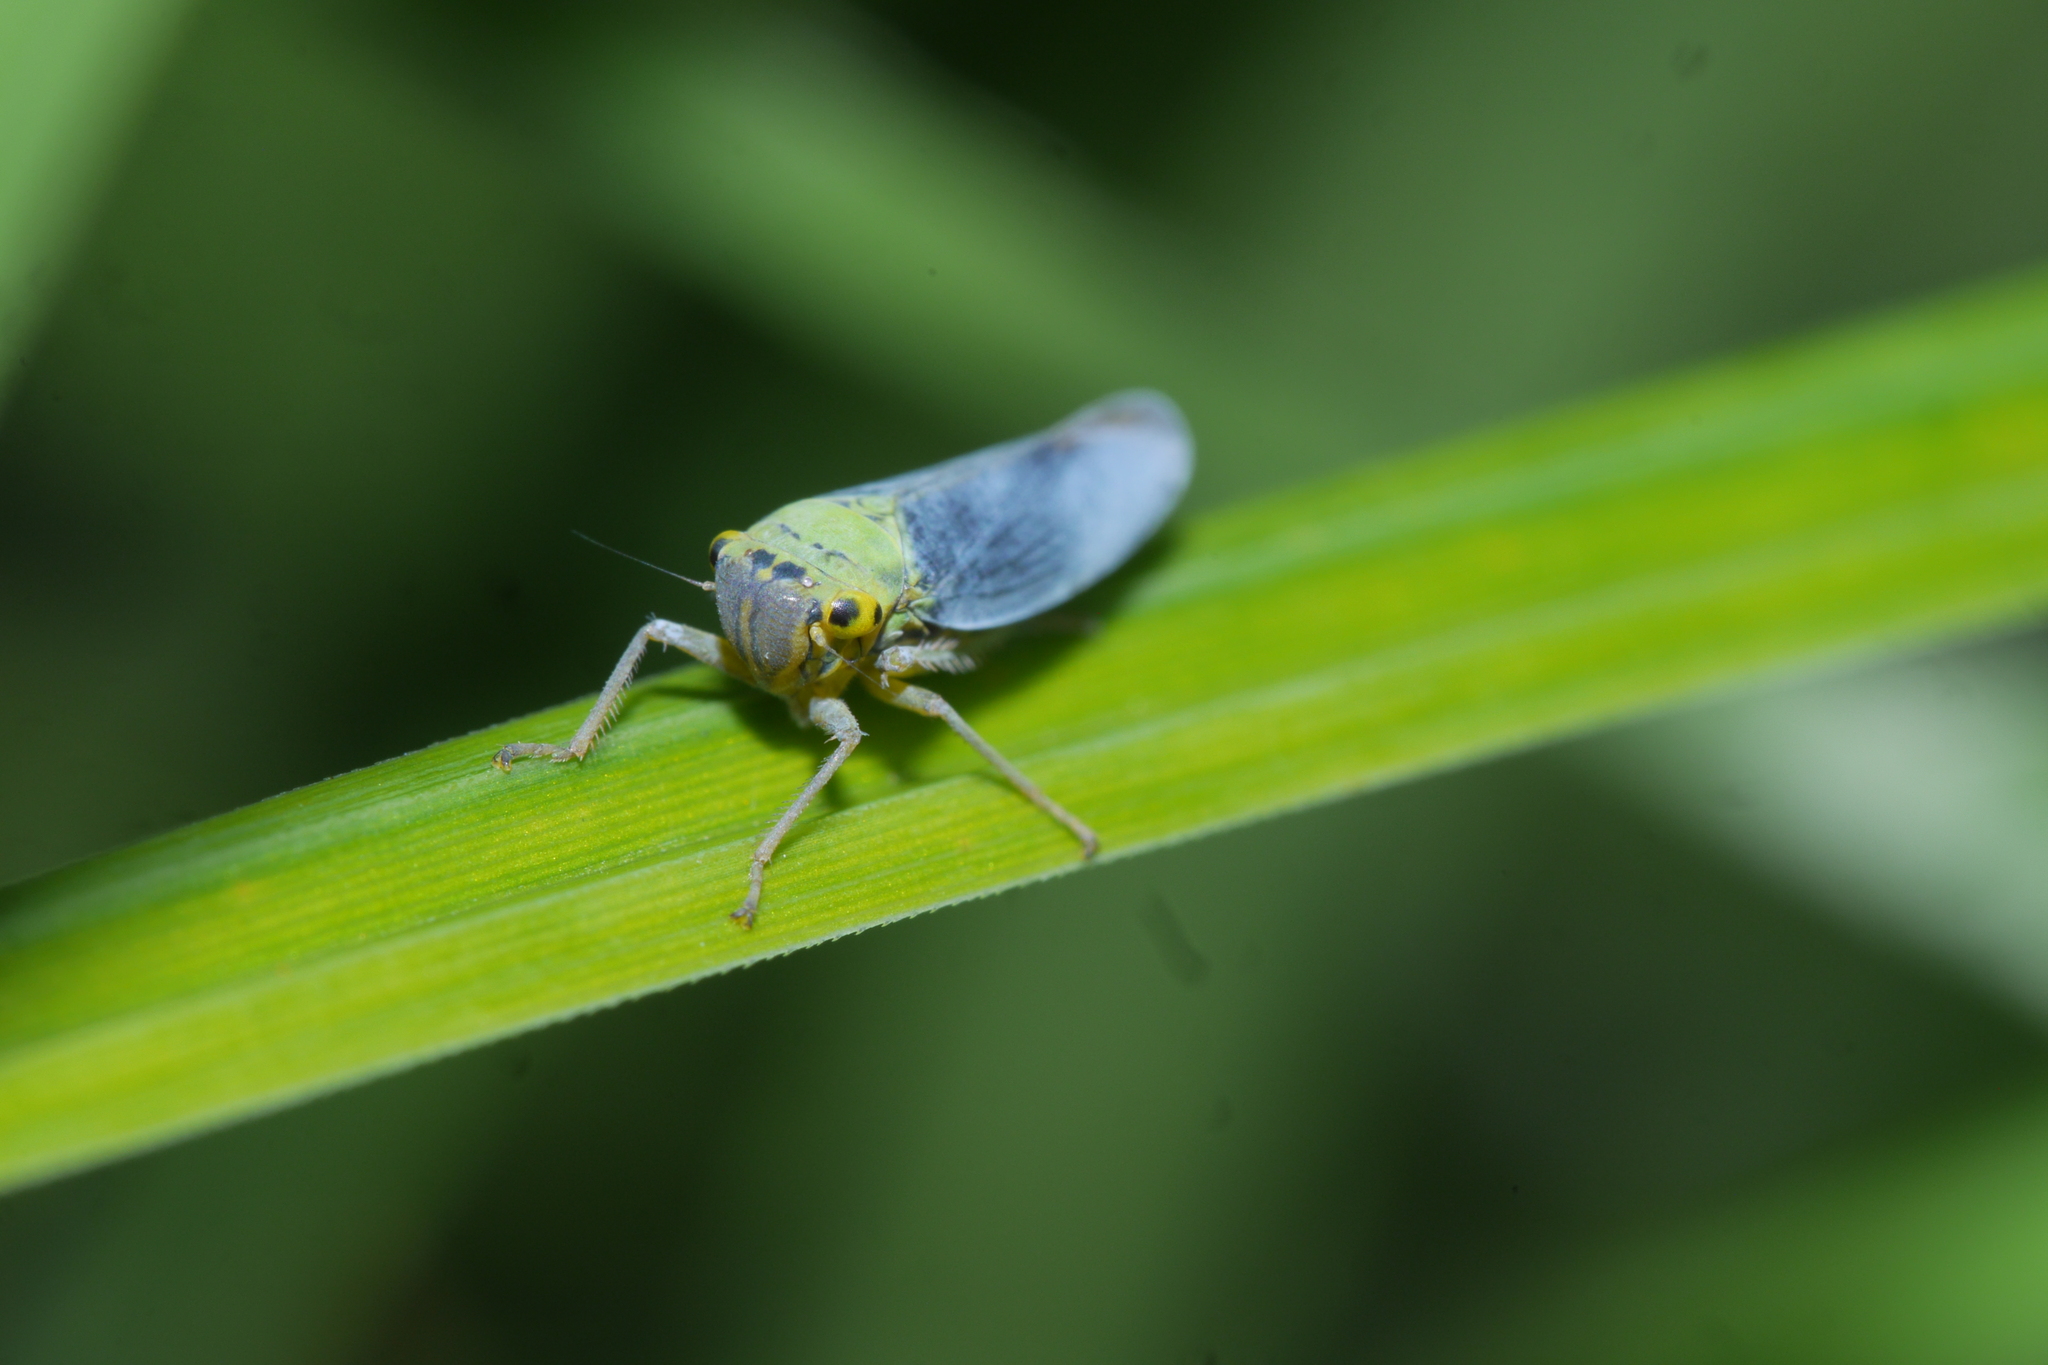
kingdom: Animalia
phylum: Arthropoda
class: Insecta
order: Hemiptera
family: Cicadellidae
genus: Cicadella
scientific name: Cicadella viridis
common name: Leafhopper
